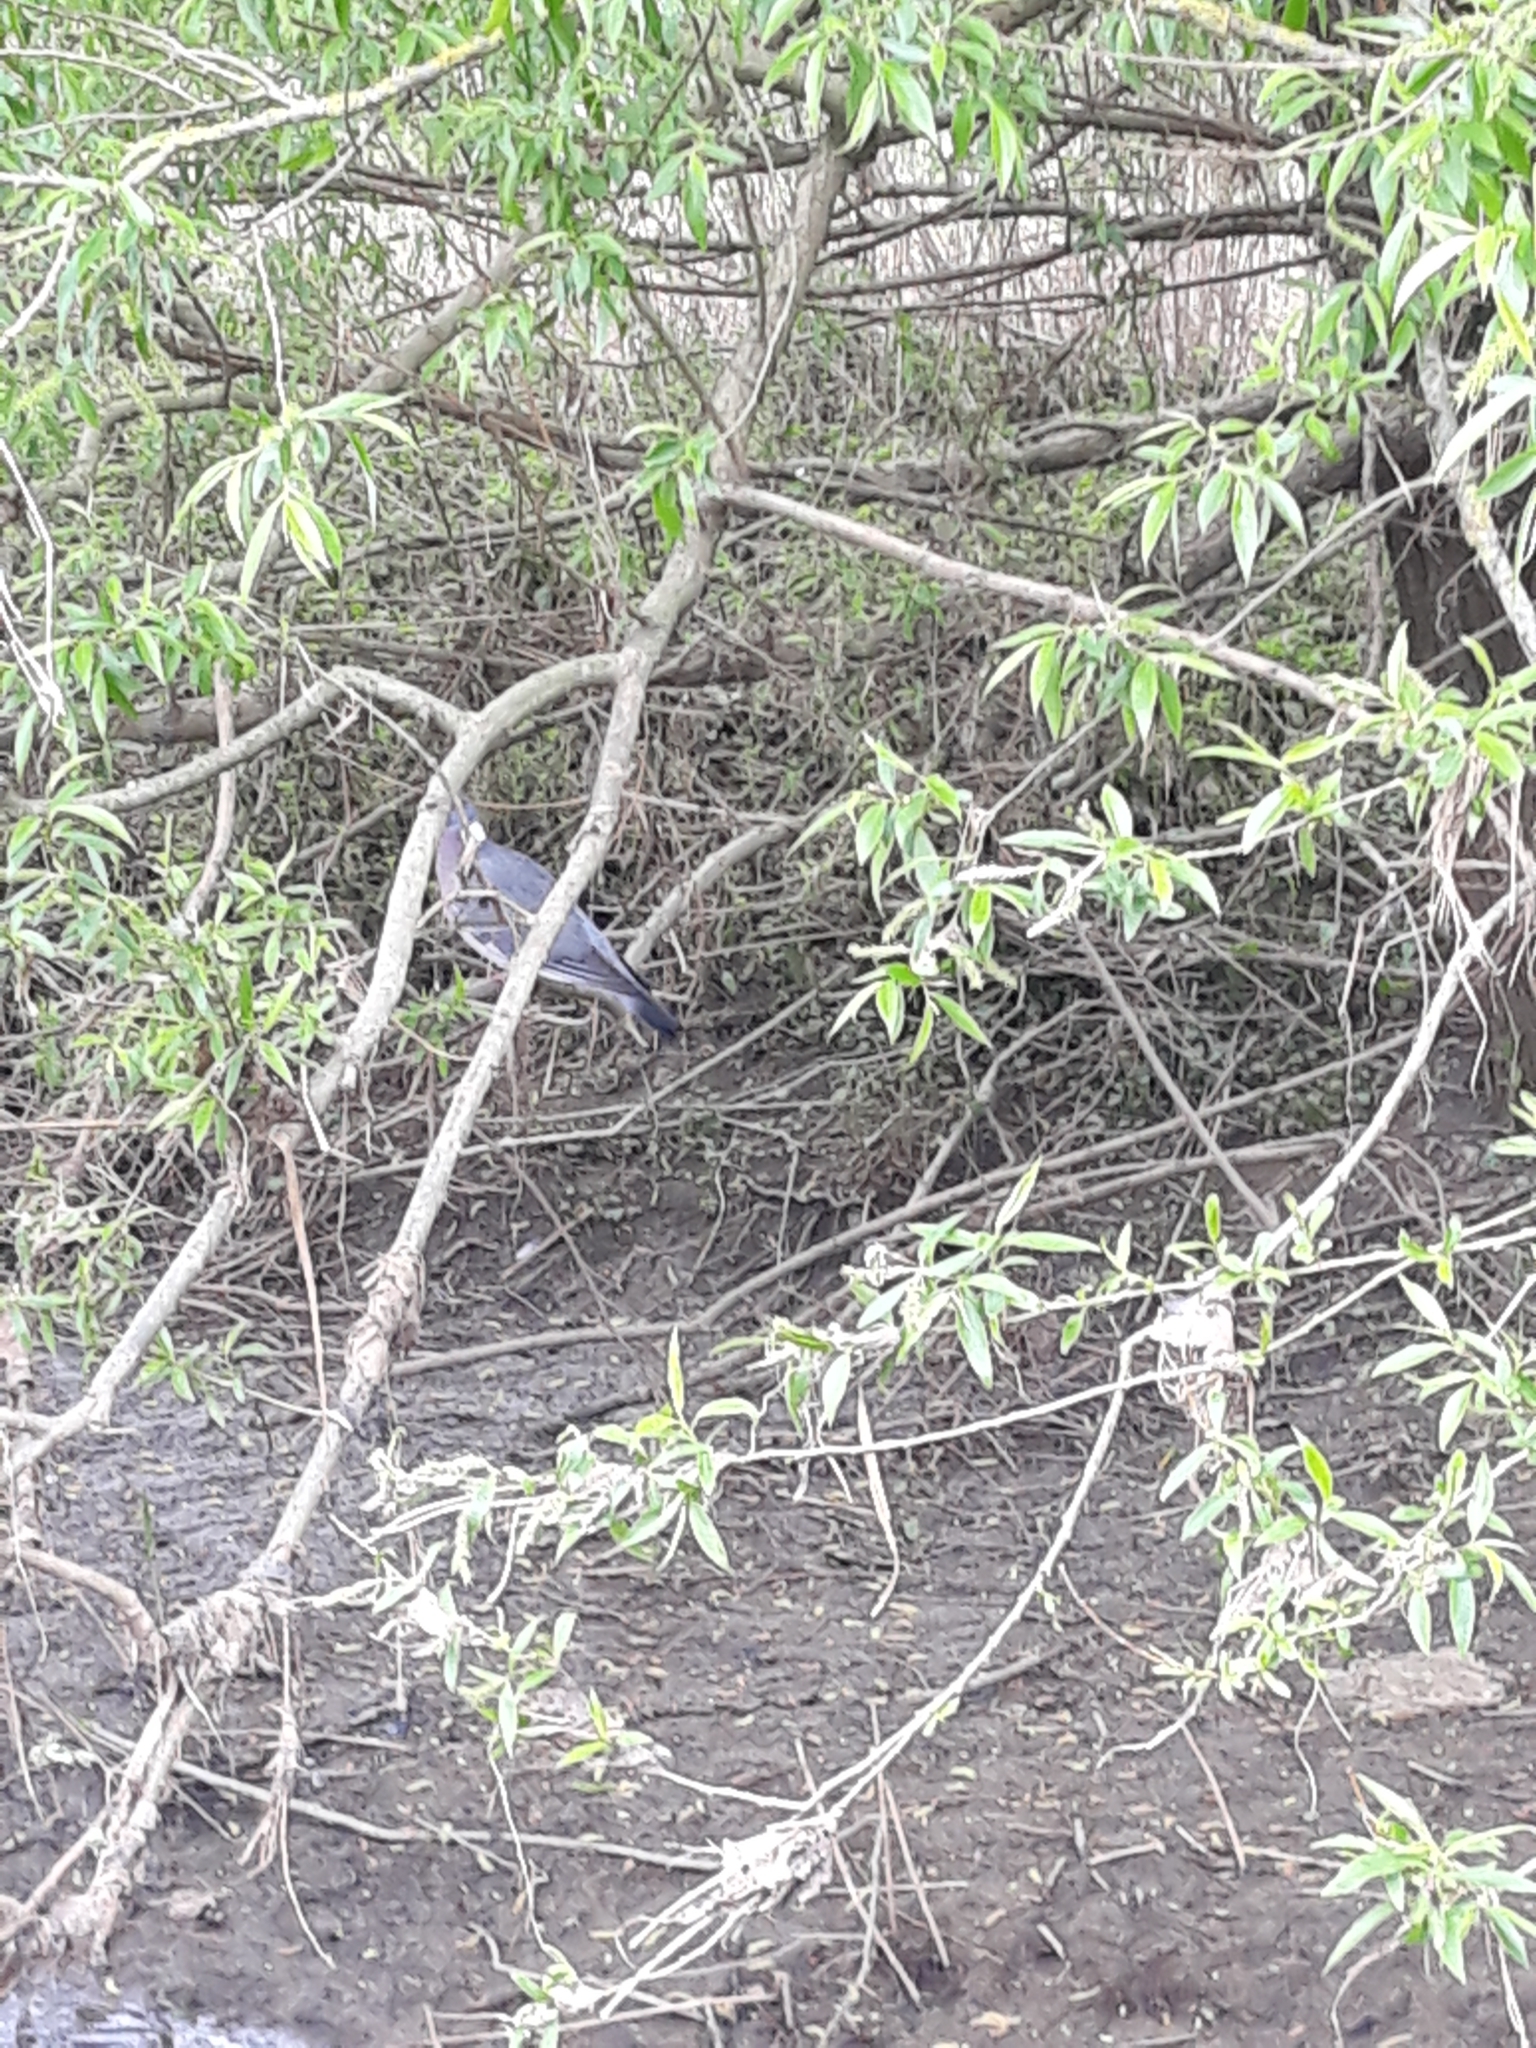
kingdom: Animalia
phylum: Chordata
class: Aves
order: Columbiformes
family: Columbidae
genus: Columba
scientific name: Columba palumbus
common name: Common wood pigeon
